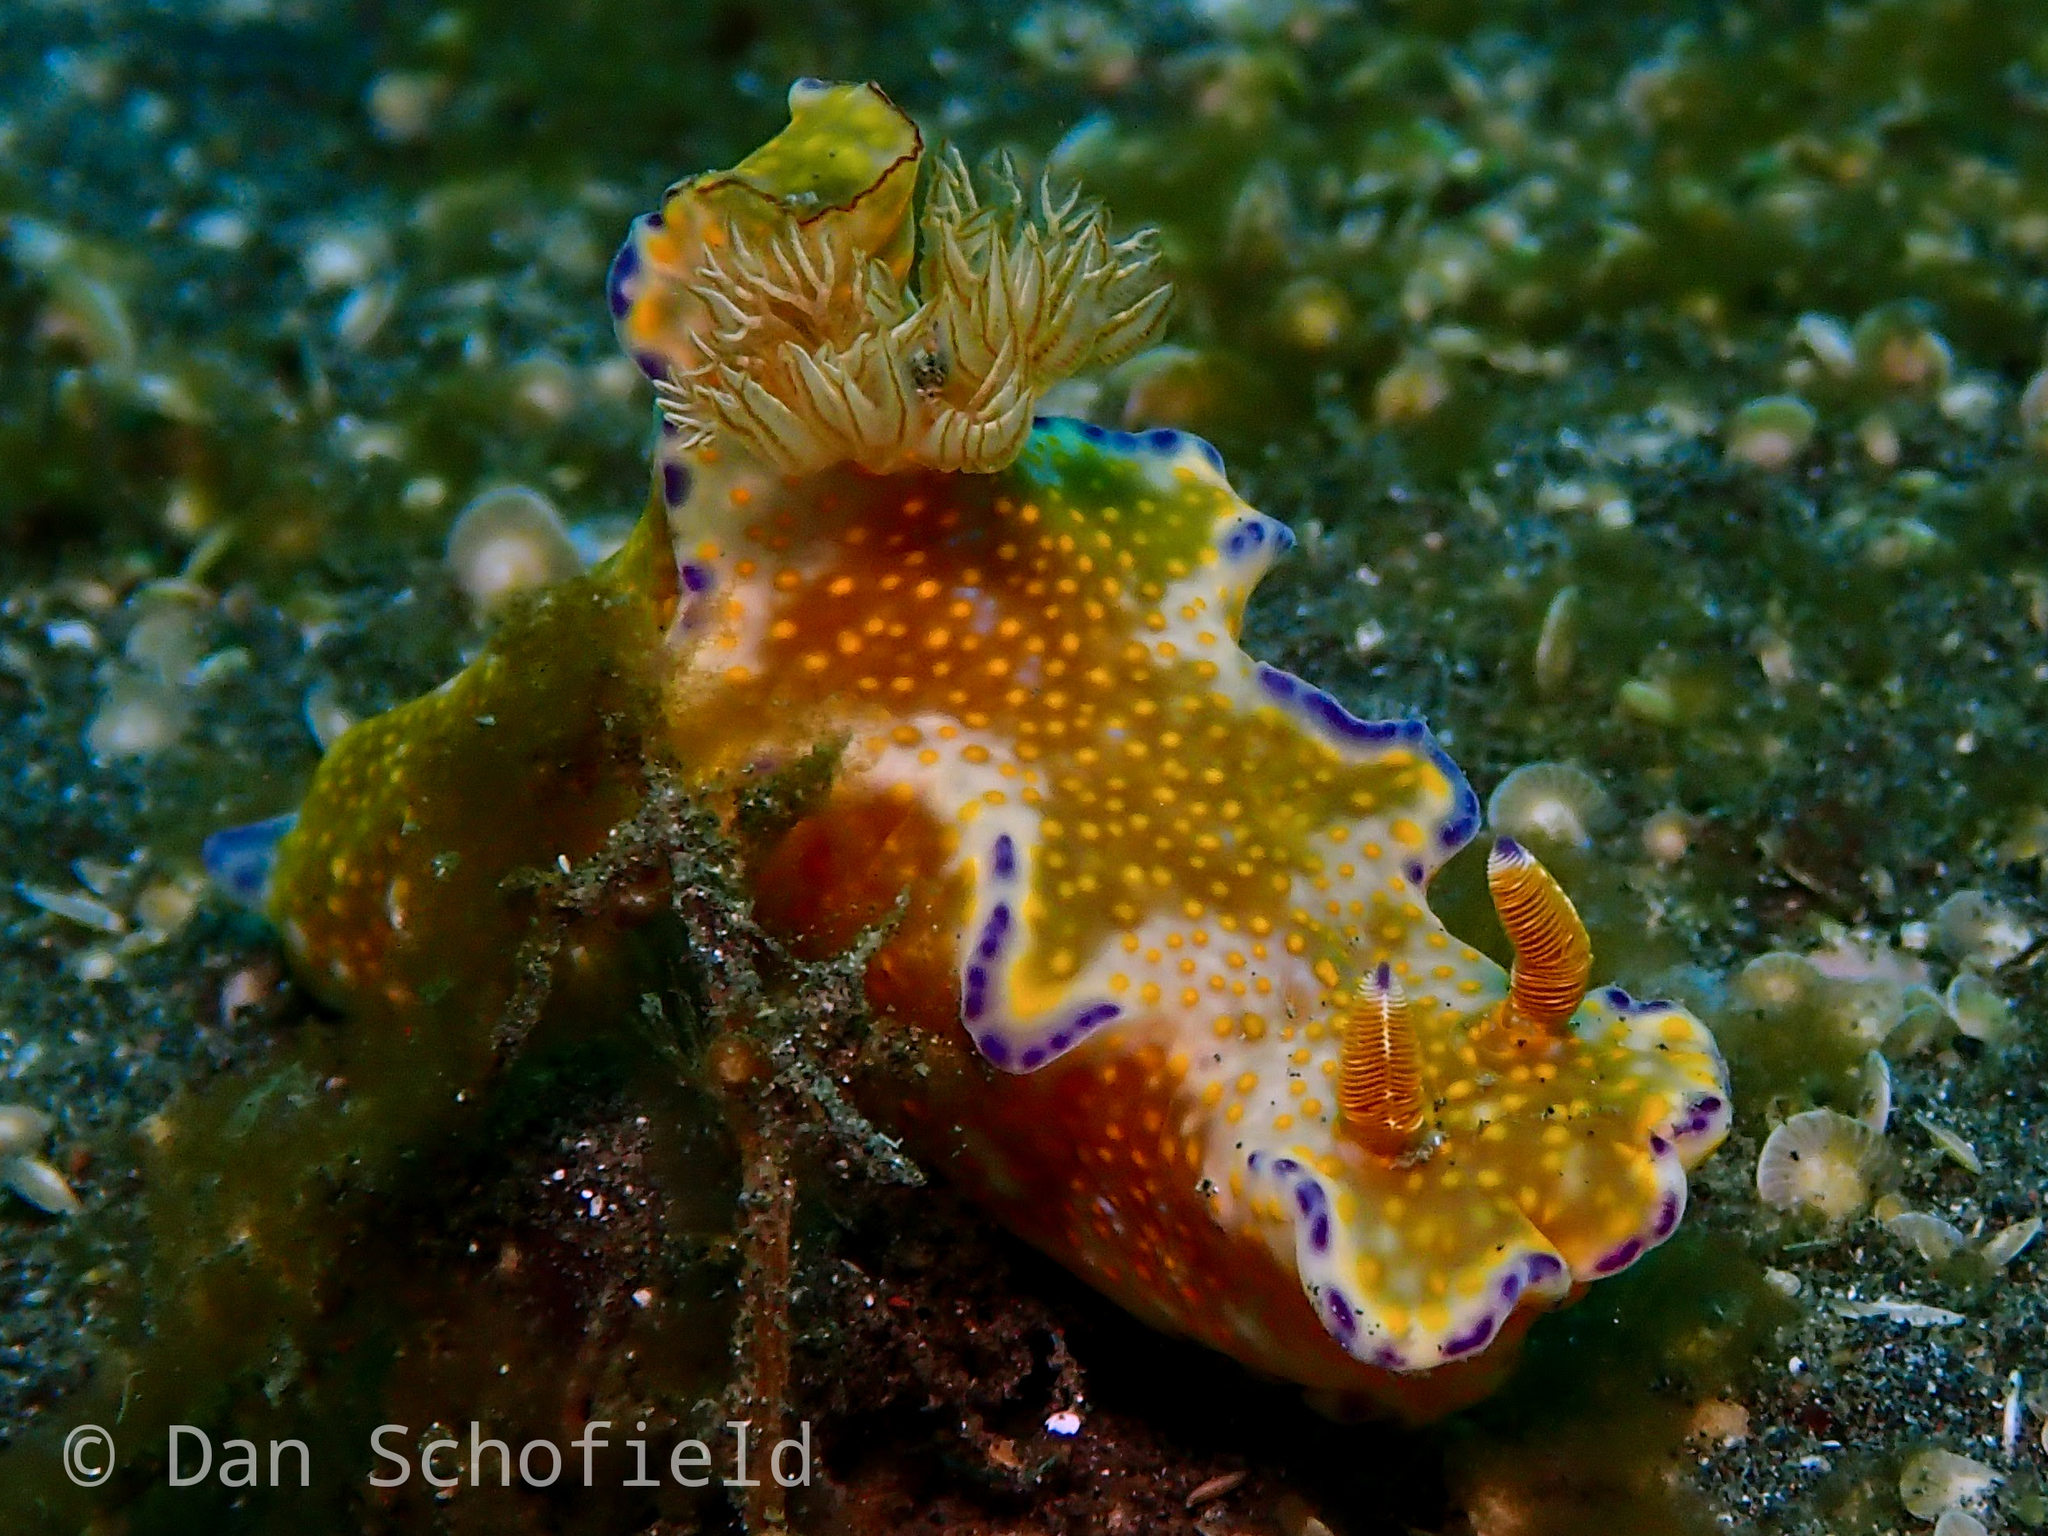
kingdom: Animalia
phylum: Mollusca
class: Gastropoda
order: Nudibranchia
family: Chromodorididae
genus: Ceratosoma
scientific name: Ceratosoma tenue
